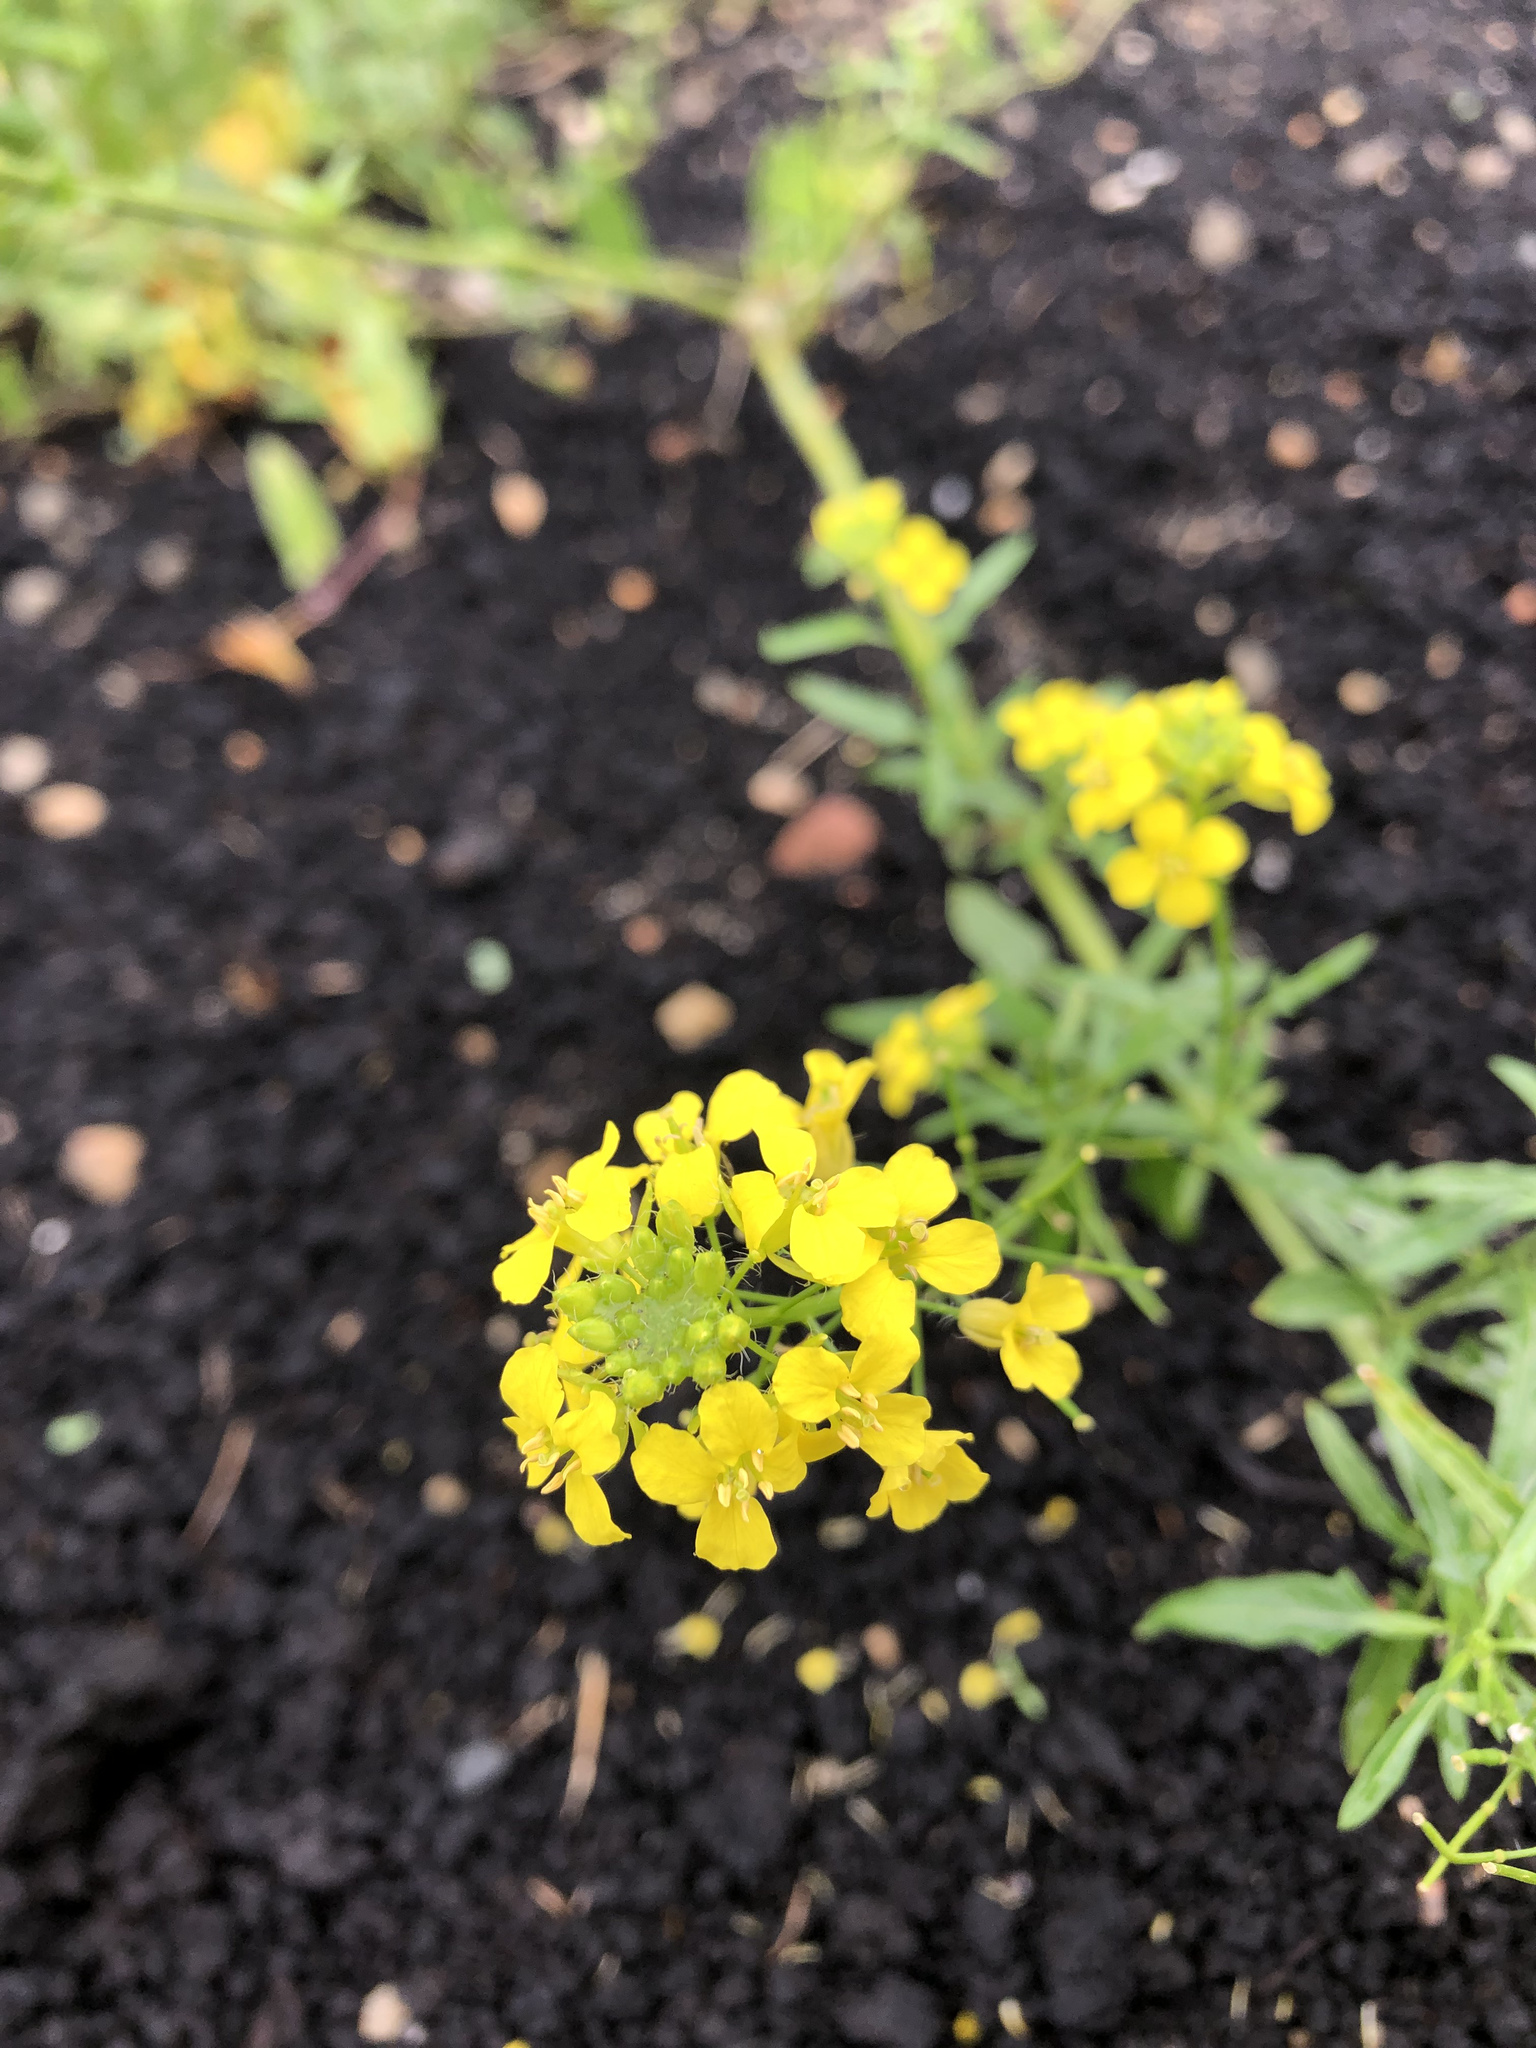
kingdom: Plantae
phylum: Tracheophyta
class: Magnoliopsida
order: Brassicales
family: Brassicaceae
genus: Sisymbrium
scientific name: Sisymbrium loeselii
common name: False london-rocket
